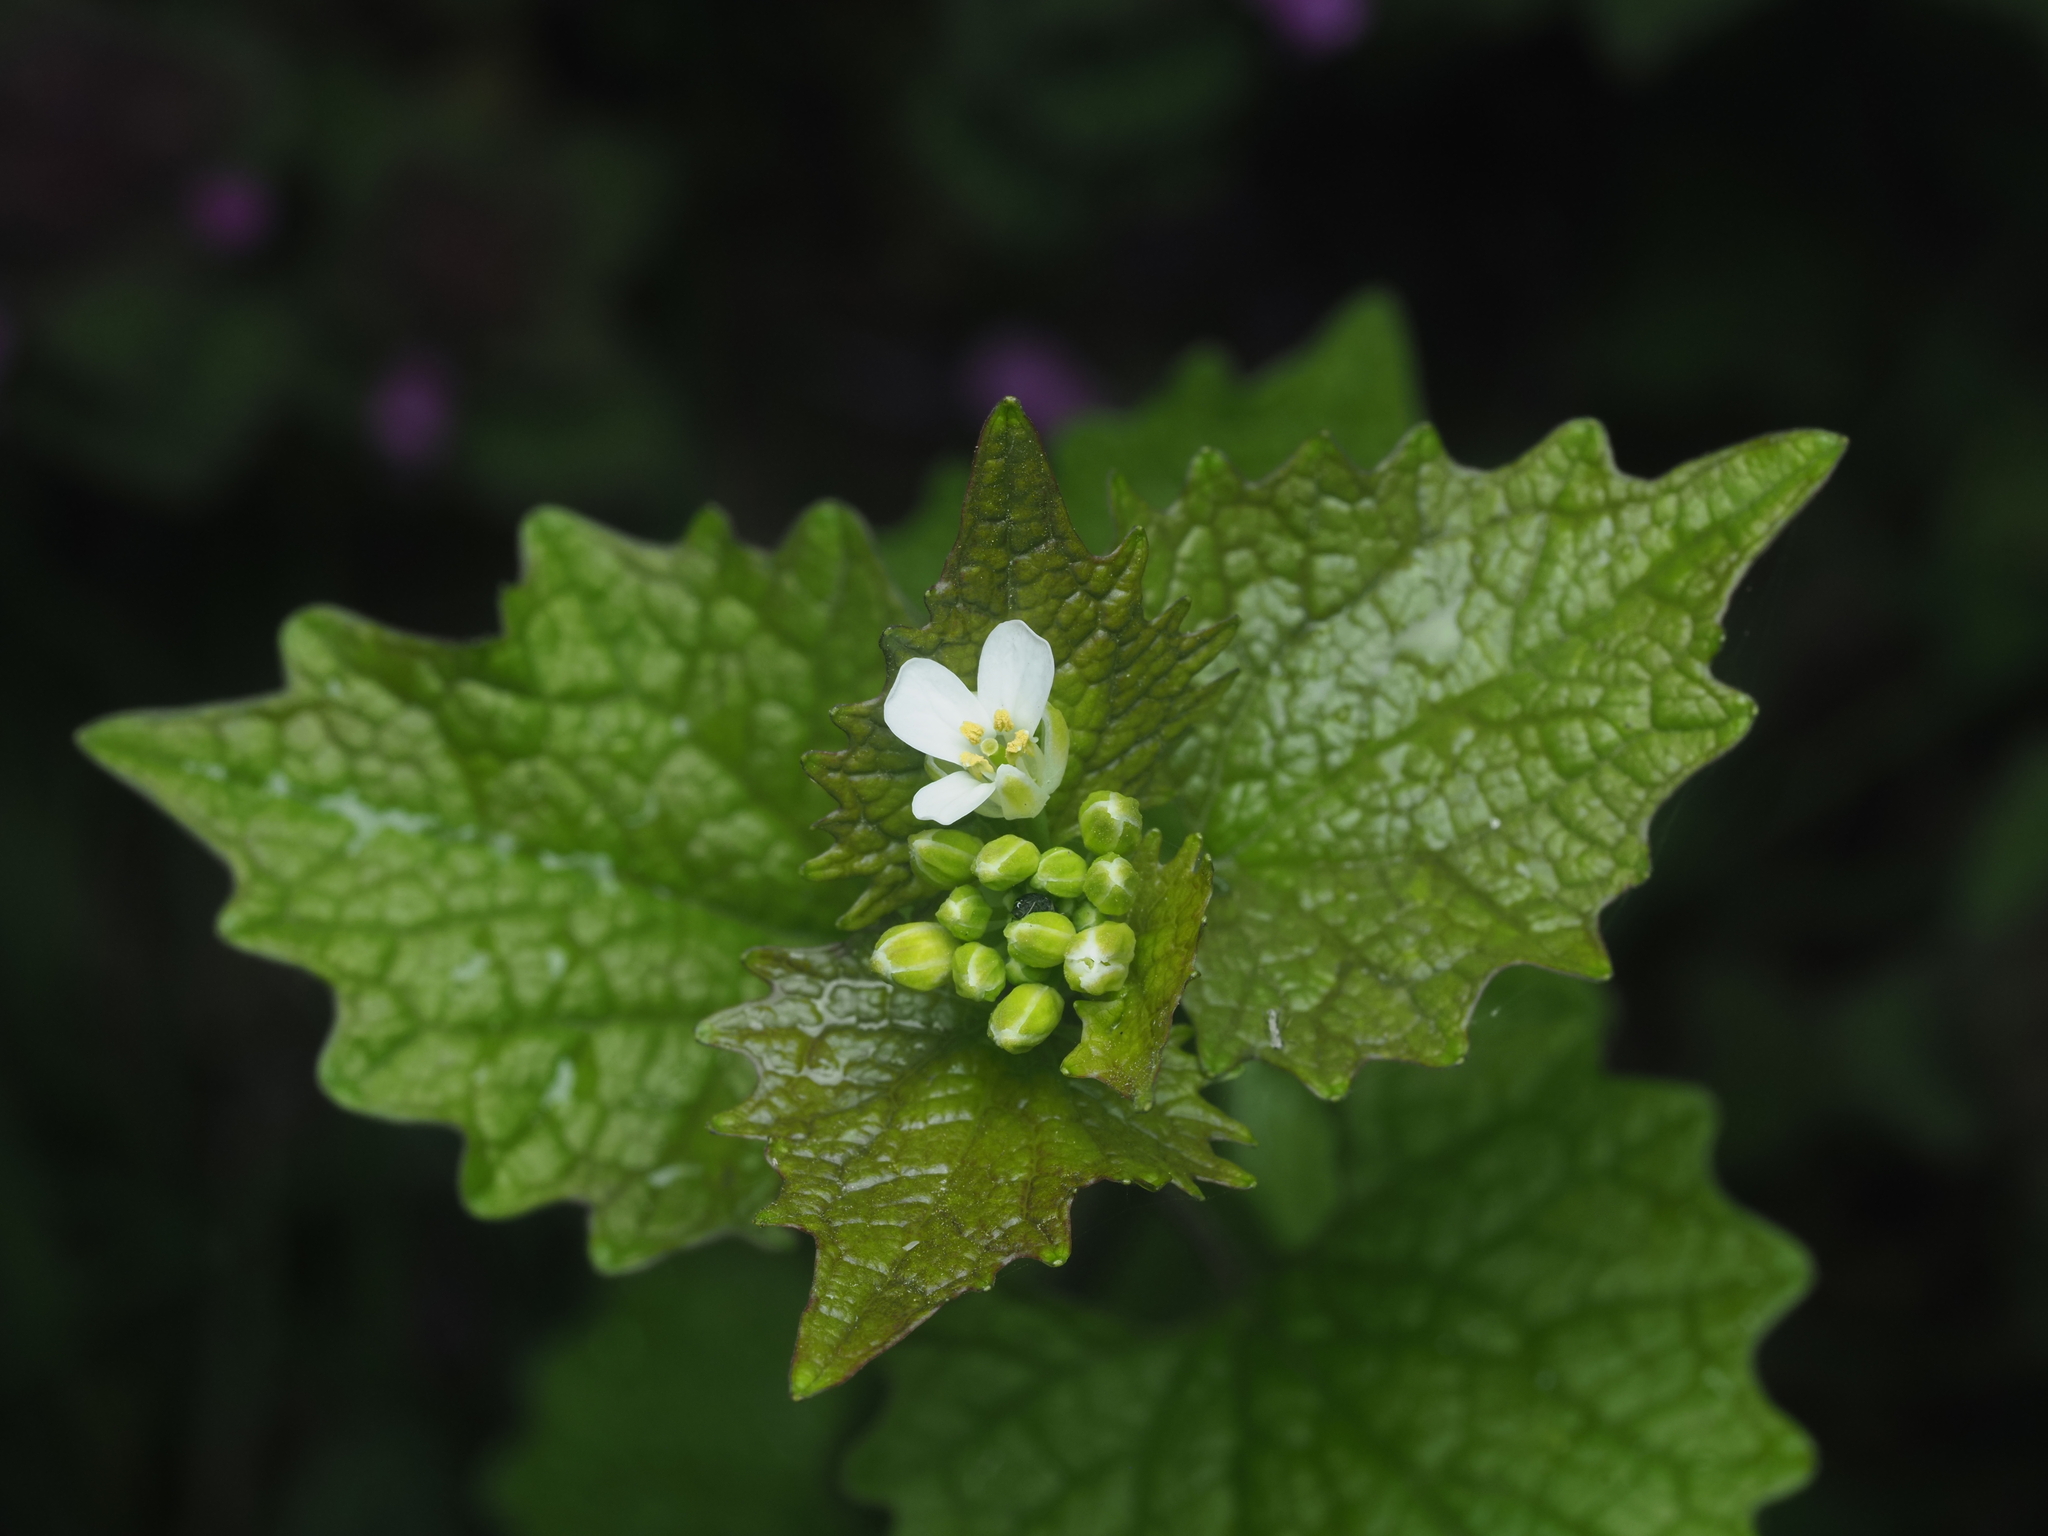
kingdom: Plantae
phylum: Tracheophyta
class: Magnoliopsida
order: Brassicales
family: Brassicaceae
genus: Alliaria
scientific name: Alliaria petiolata
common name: Garlic mustard
